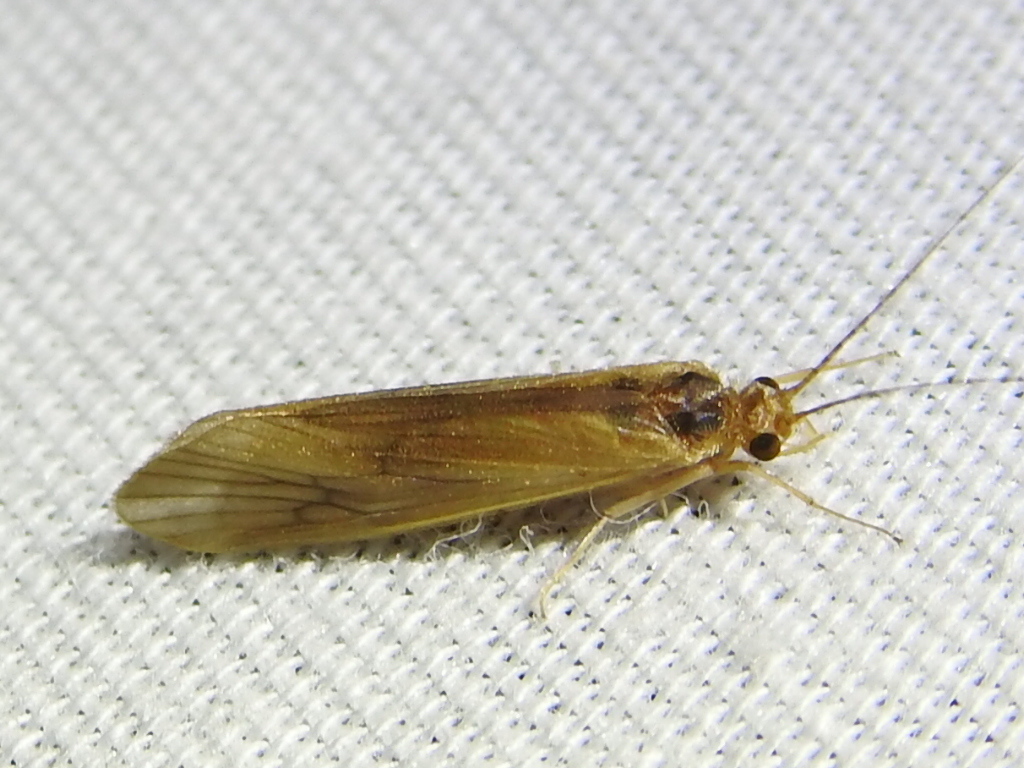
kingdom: Animalia
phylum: Arthropoda
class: Insecta
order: Trichoptera
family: Hydropsychidae
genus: Potamyia
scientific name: Potamyia flava
